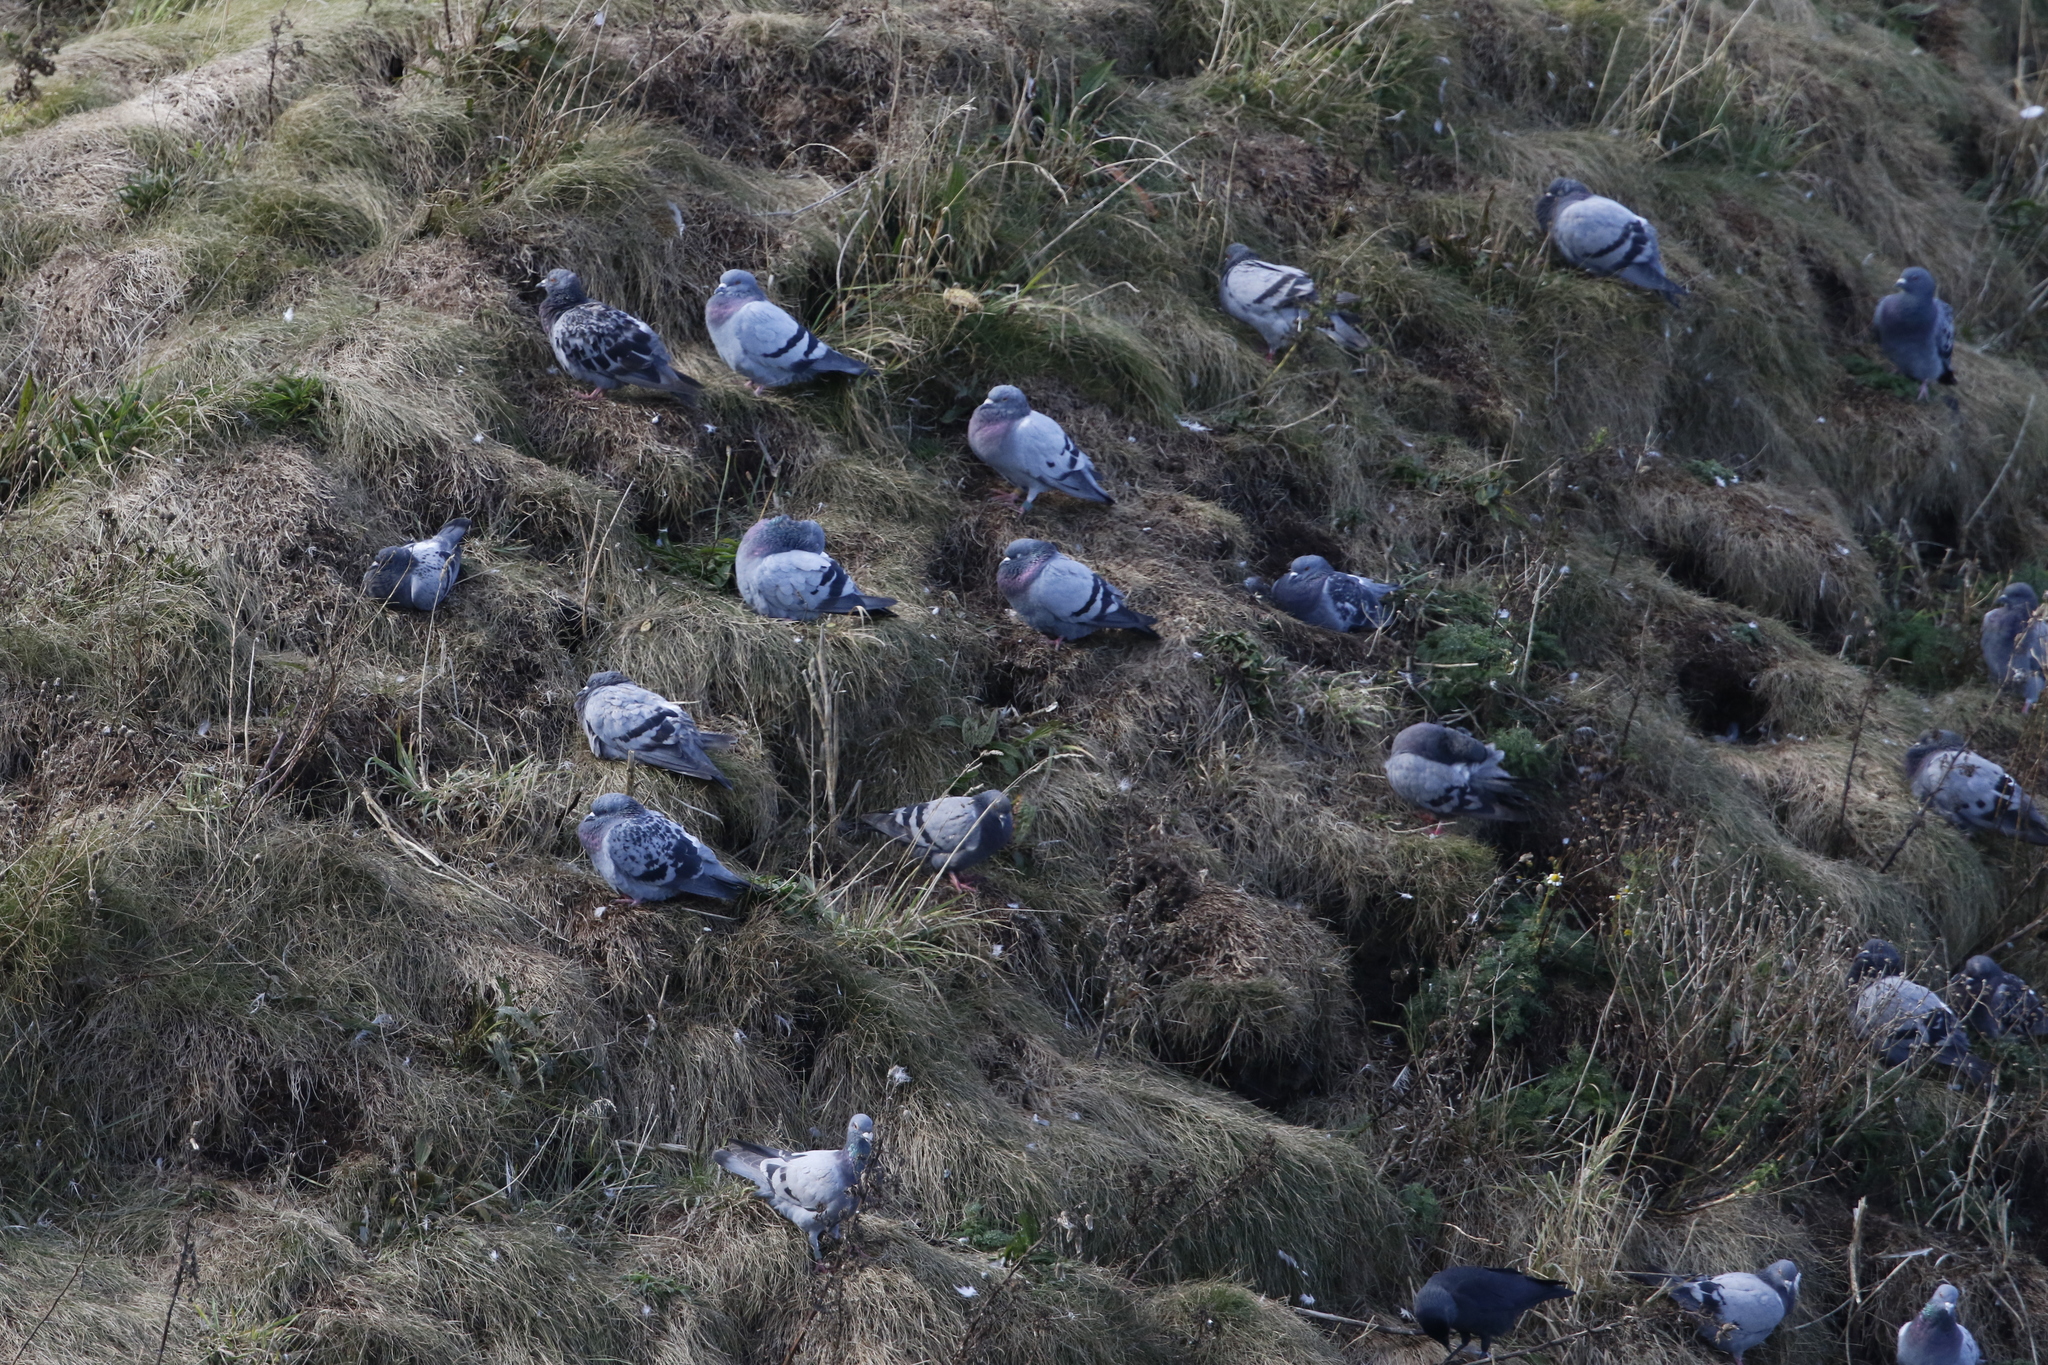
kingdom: Animalia
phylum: Chordata
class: Aves
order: Columbiformes
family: Columbidae
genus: Columba
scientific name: Columba livia
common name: Rock pigeon
